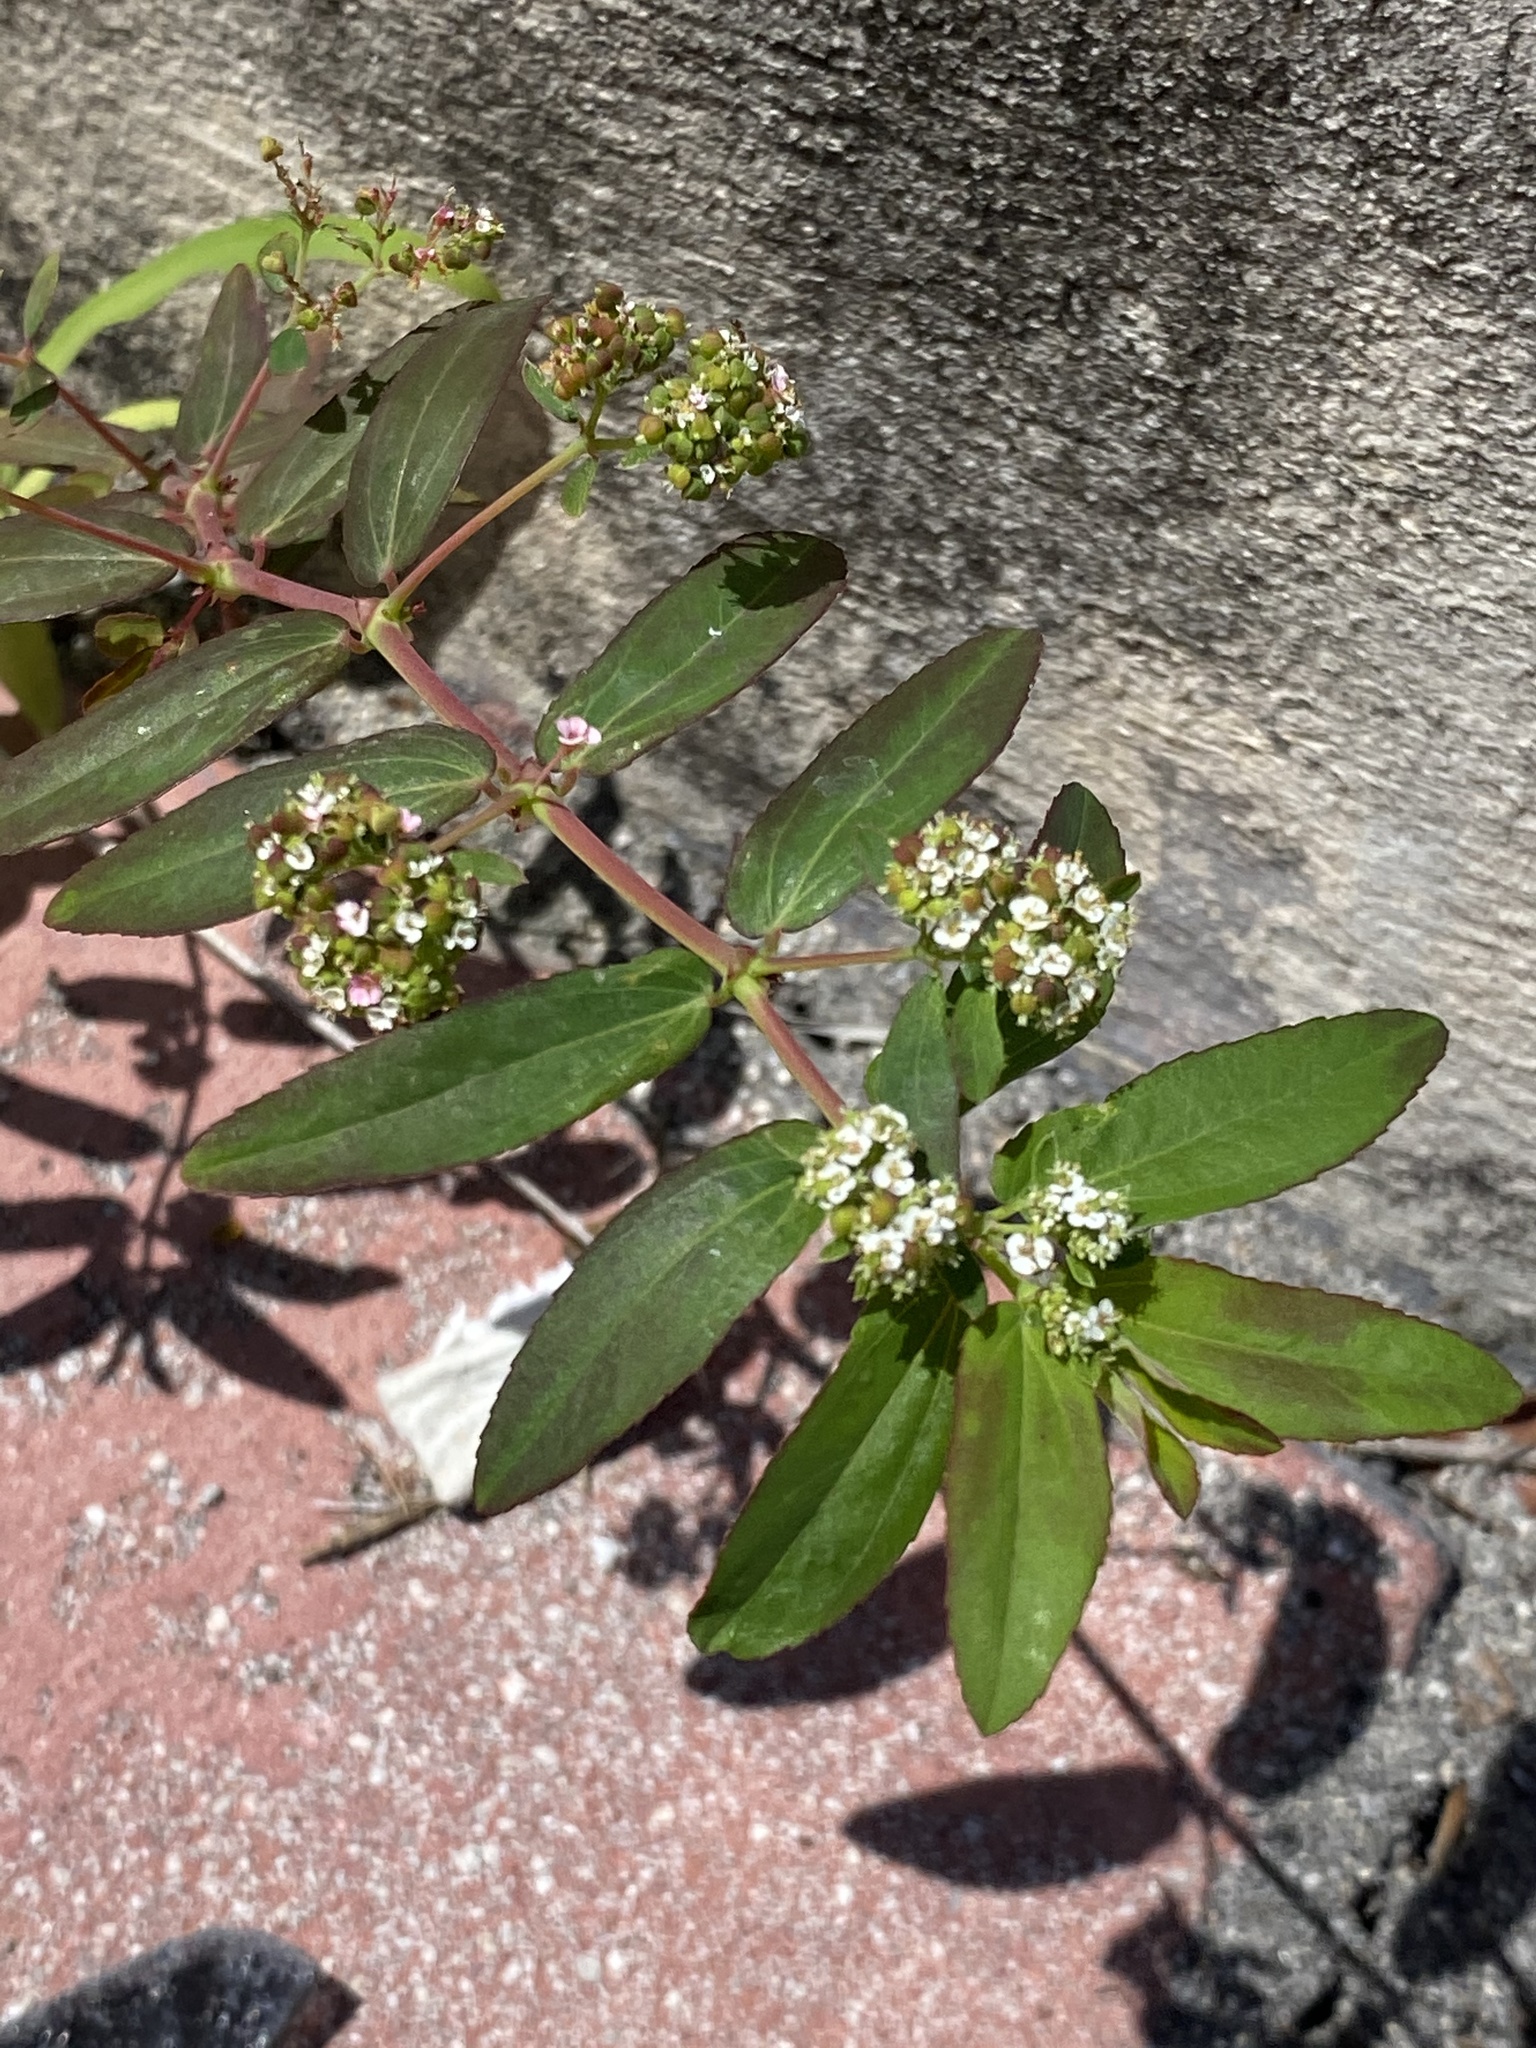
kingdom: Plantae
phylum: Tracheophyta
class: Magnoliopsida
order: Malpighiales
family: Euphorbiaceae
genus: Euphorbia
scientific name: Euphorbia hypericifolia
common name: Graceful sandmat
